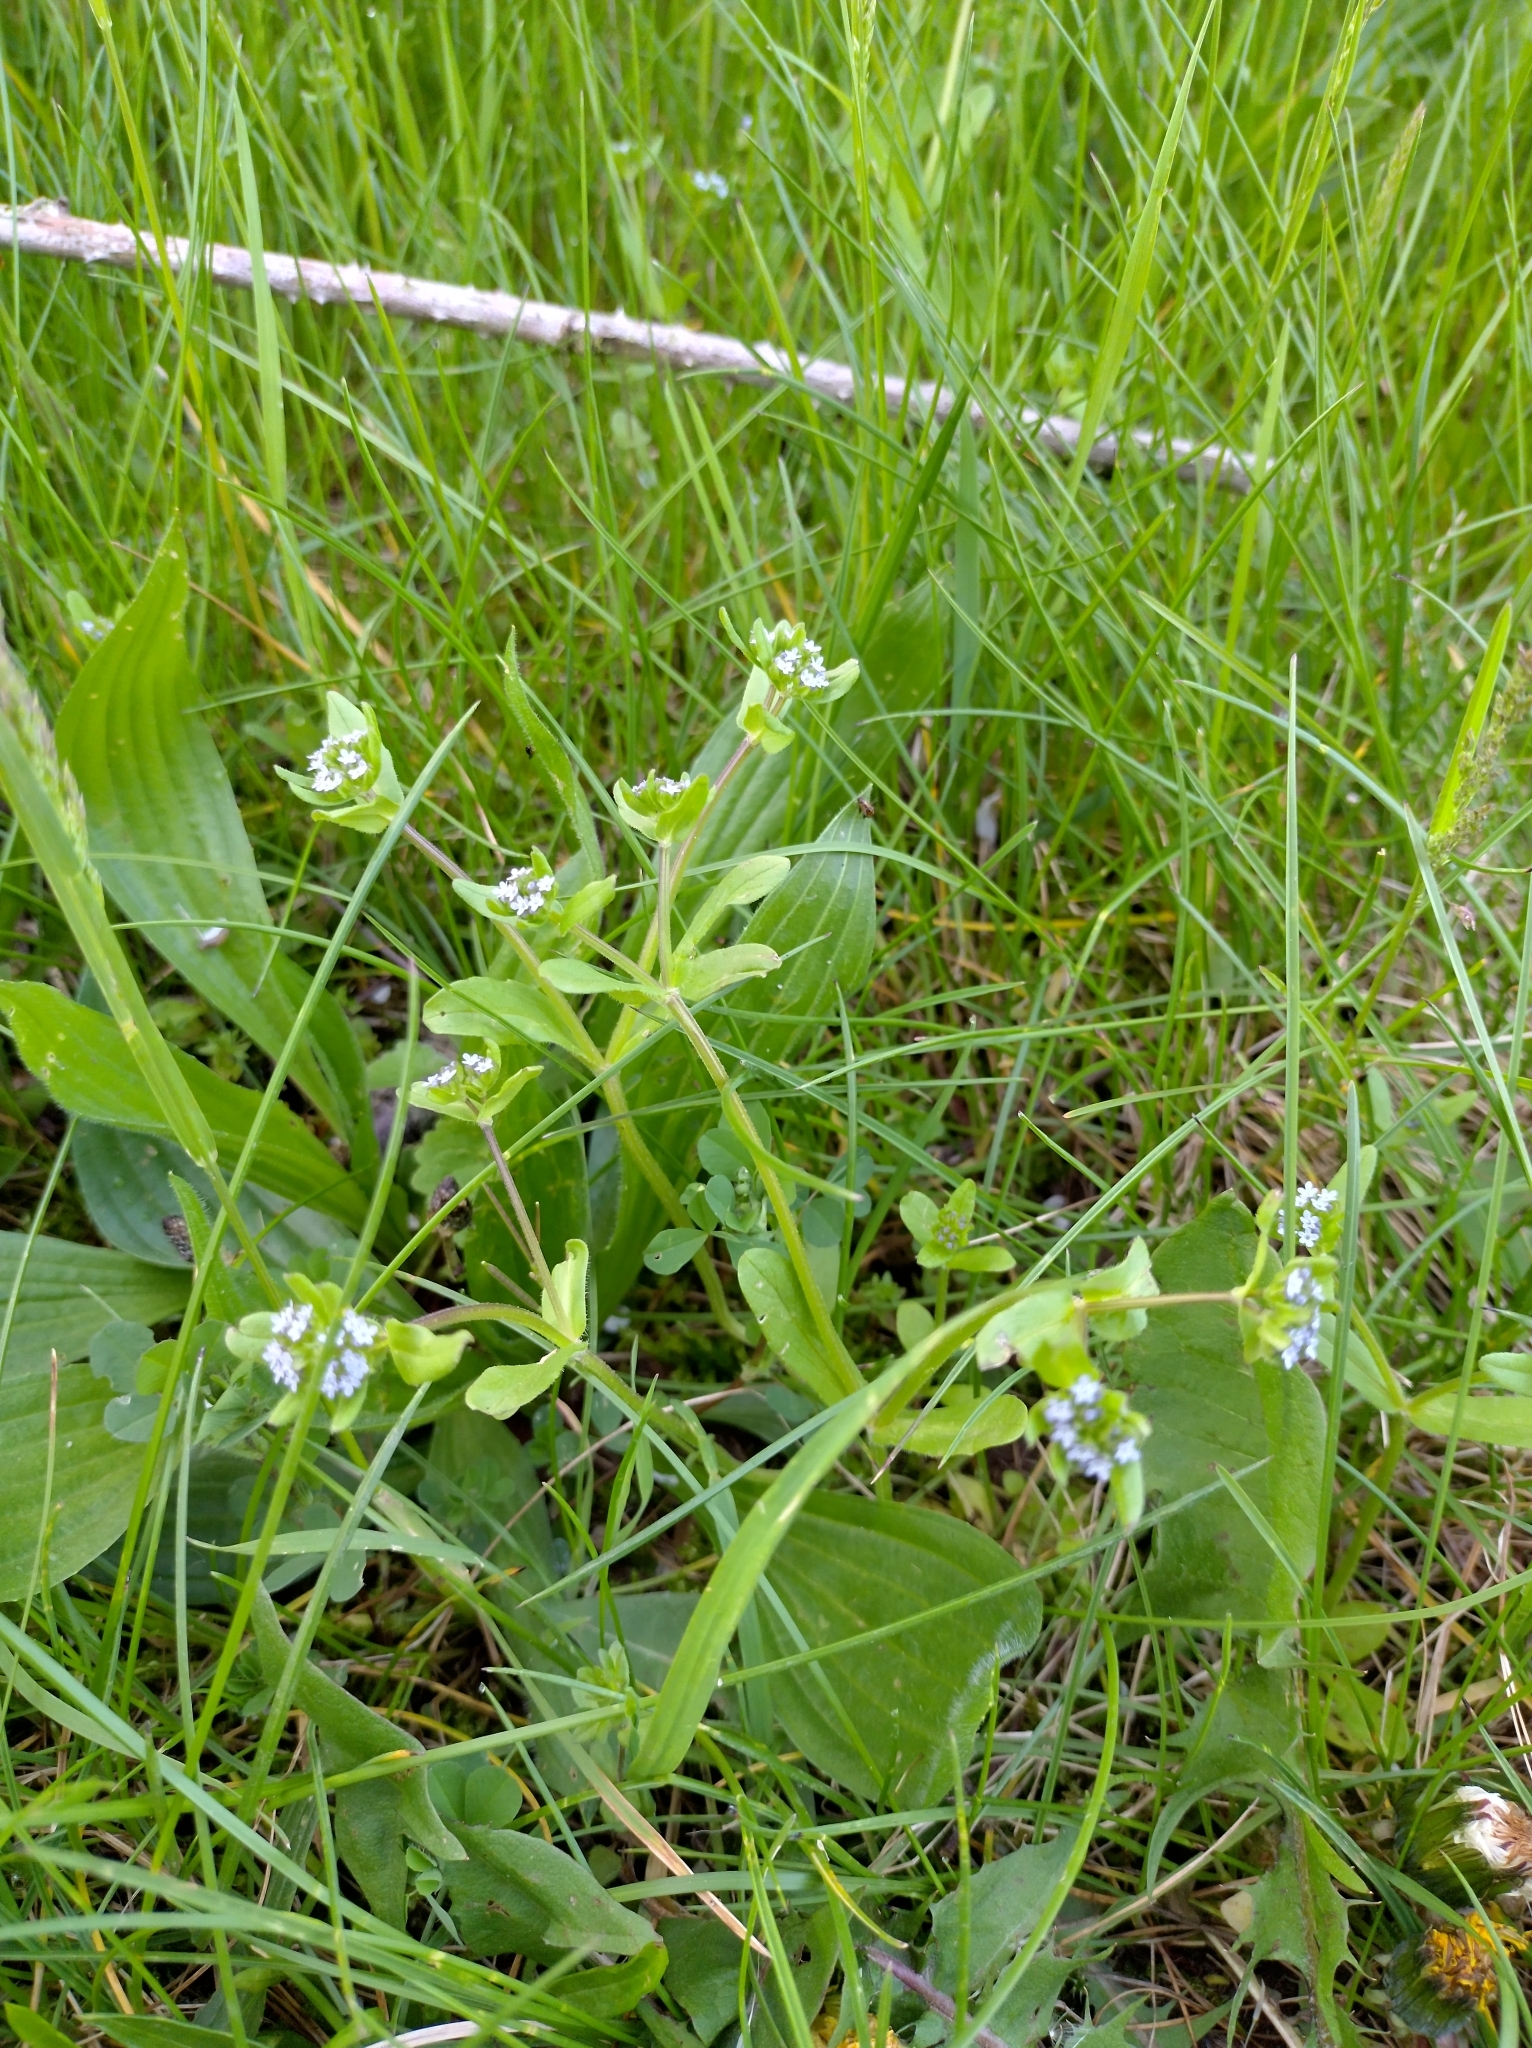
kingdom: Plantae
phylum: Tracheophyta
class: Magnoliopsida
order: Dipsacales
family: Caprifoliaceae
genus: Valerianella
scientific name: Valerianella locusta
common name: Common cornsalad
